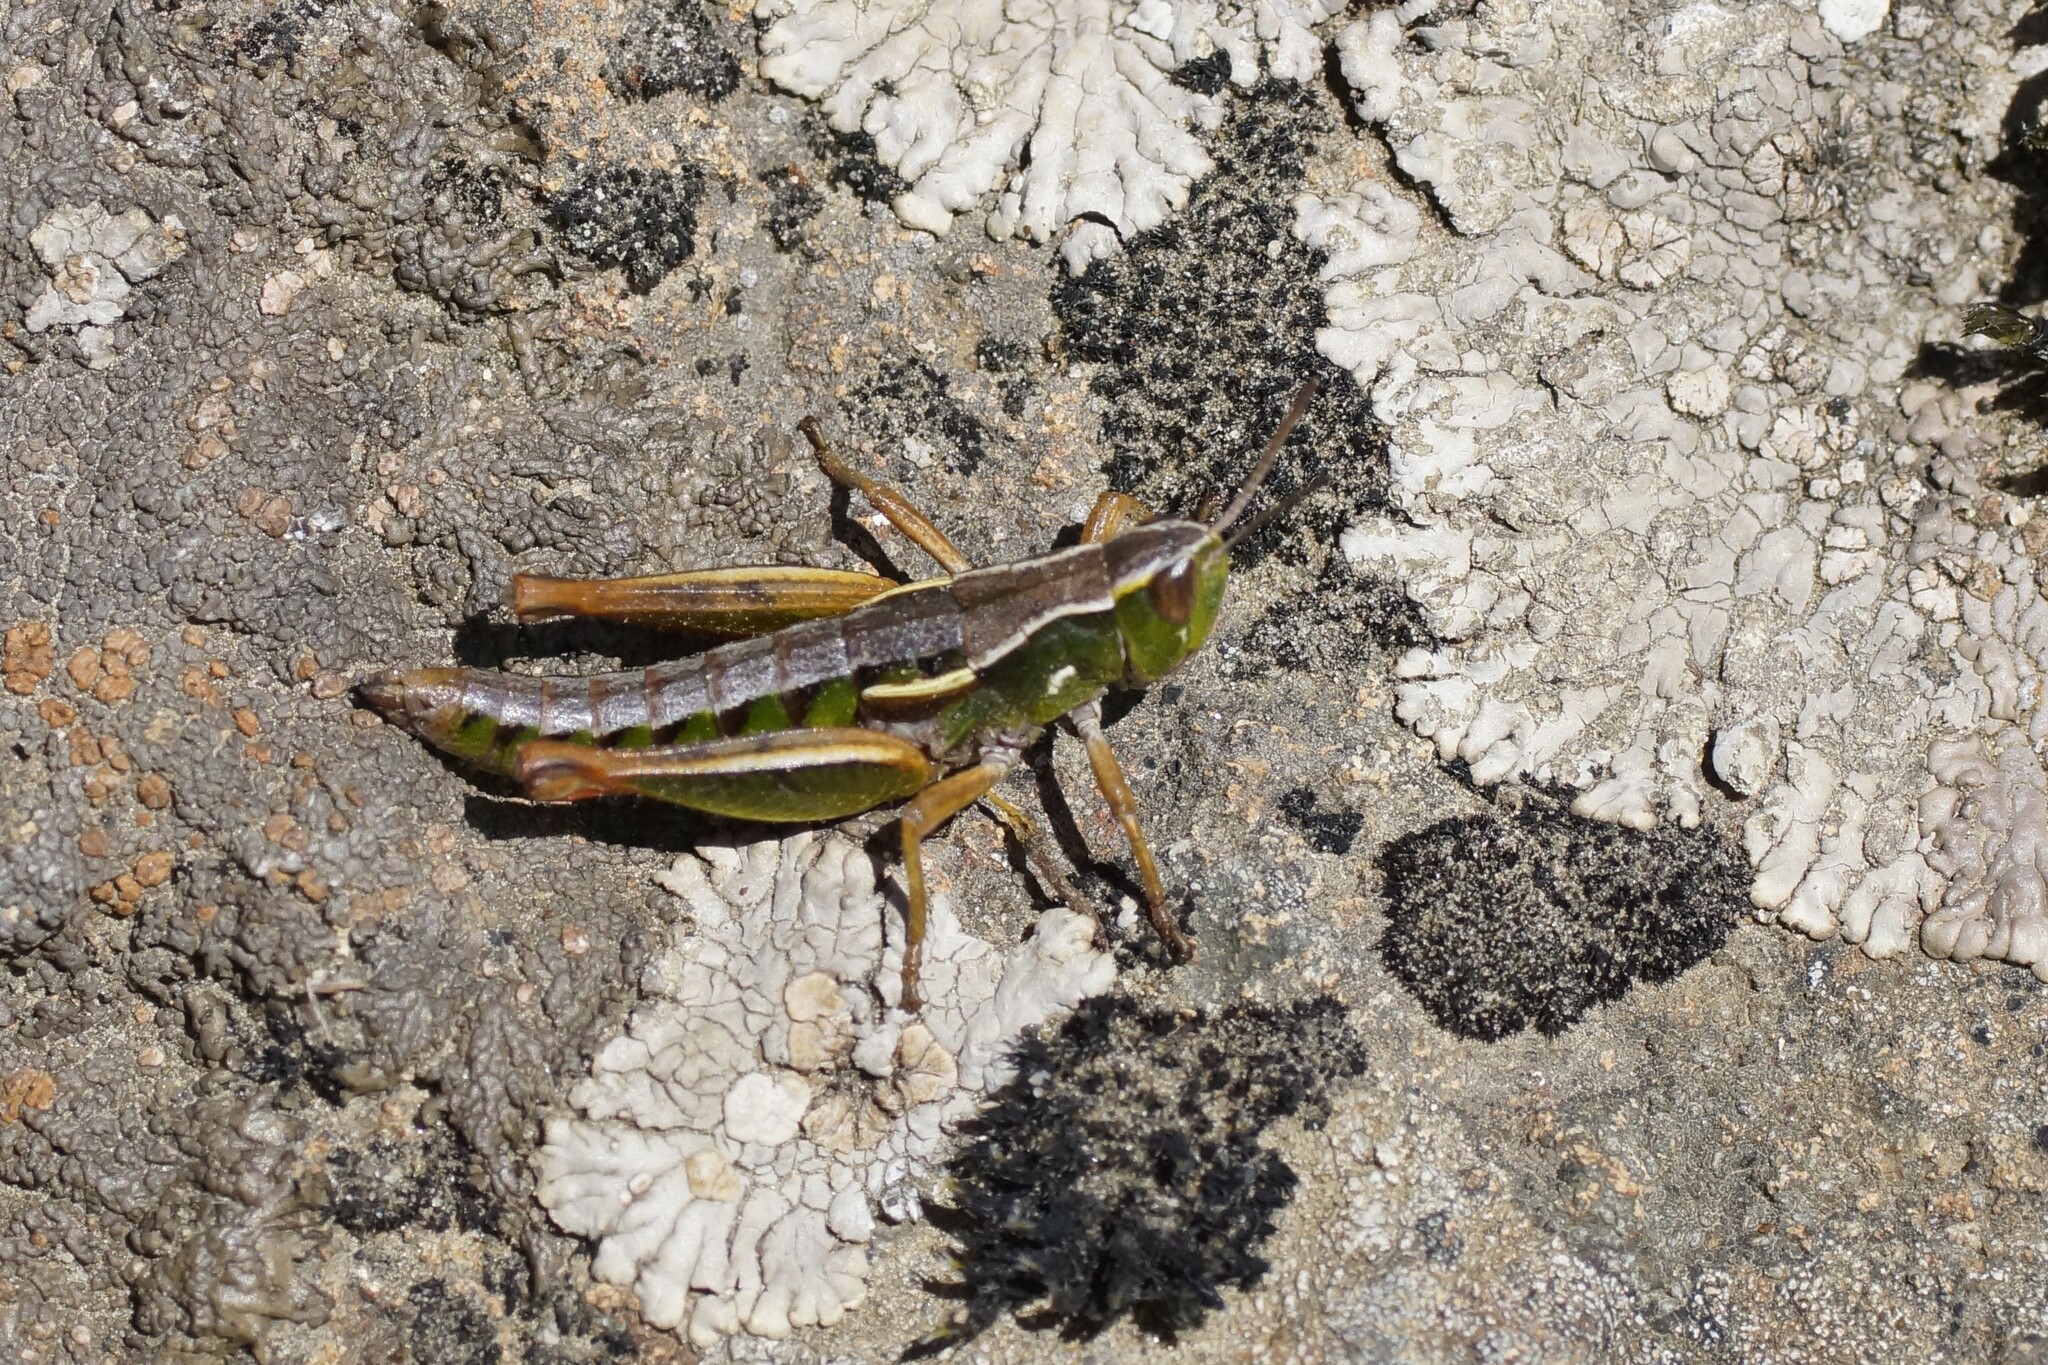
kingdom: Animalia
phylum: Arthropoda
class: Insecta
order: Orthoptera
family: Acrididae
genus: Russalpia
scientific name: Russalpia albertisi
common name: Tassie hopper
